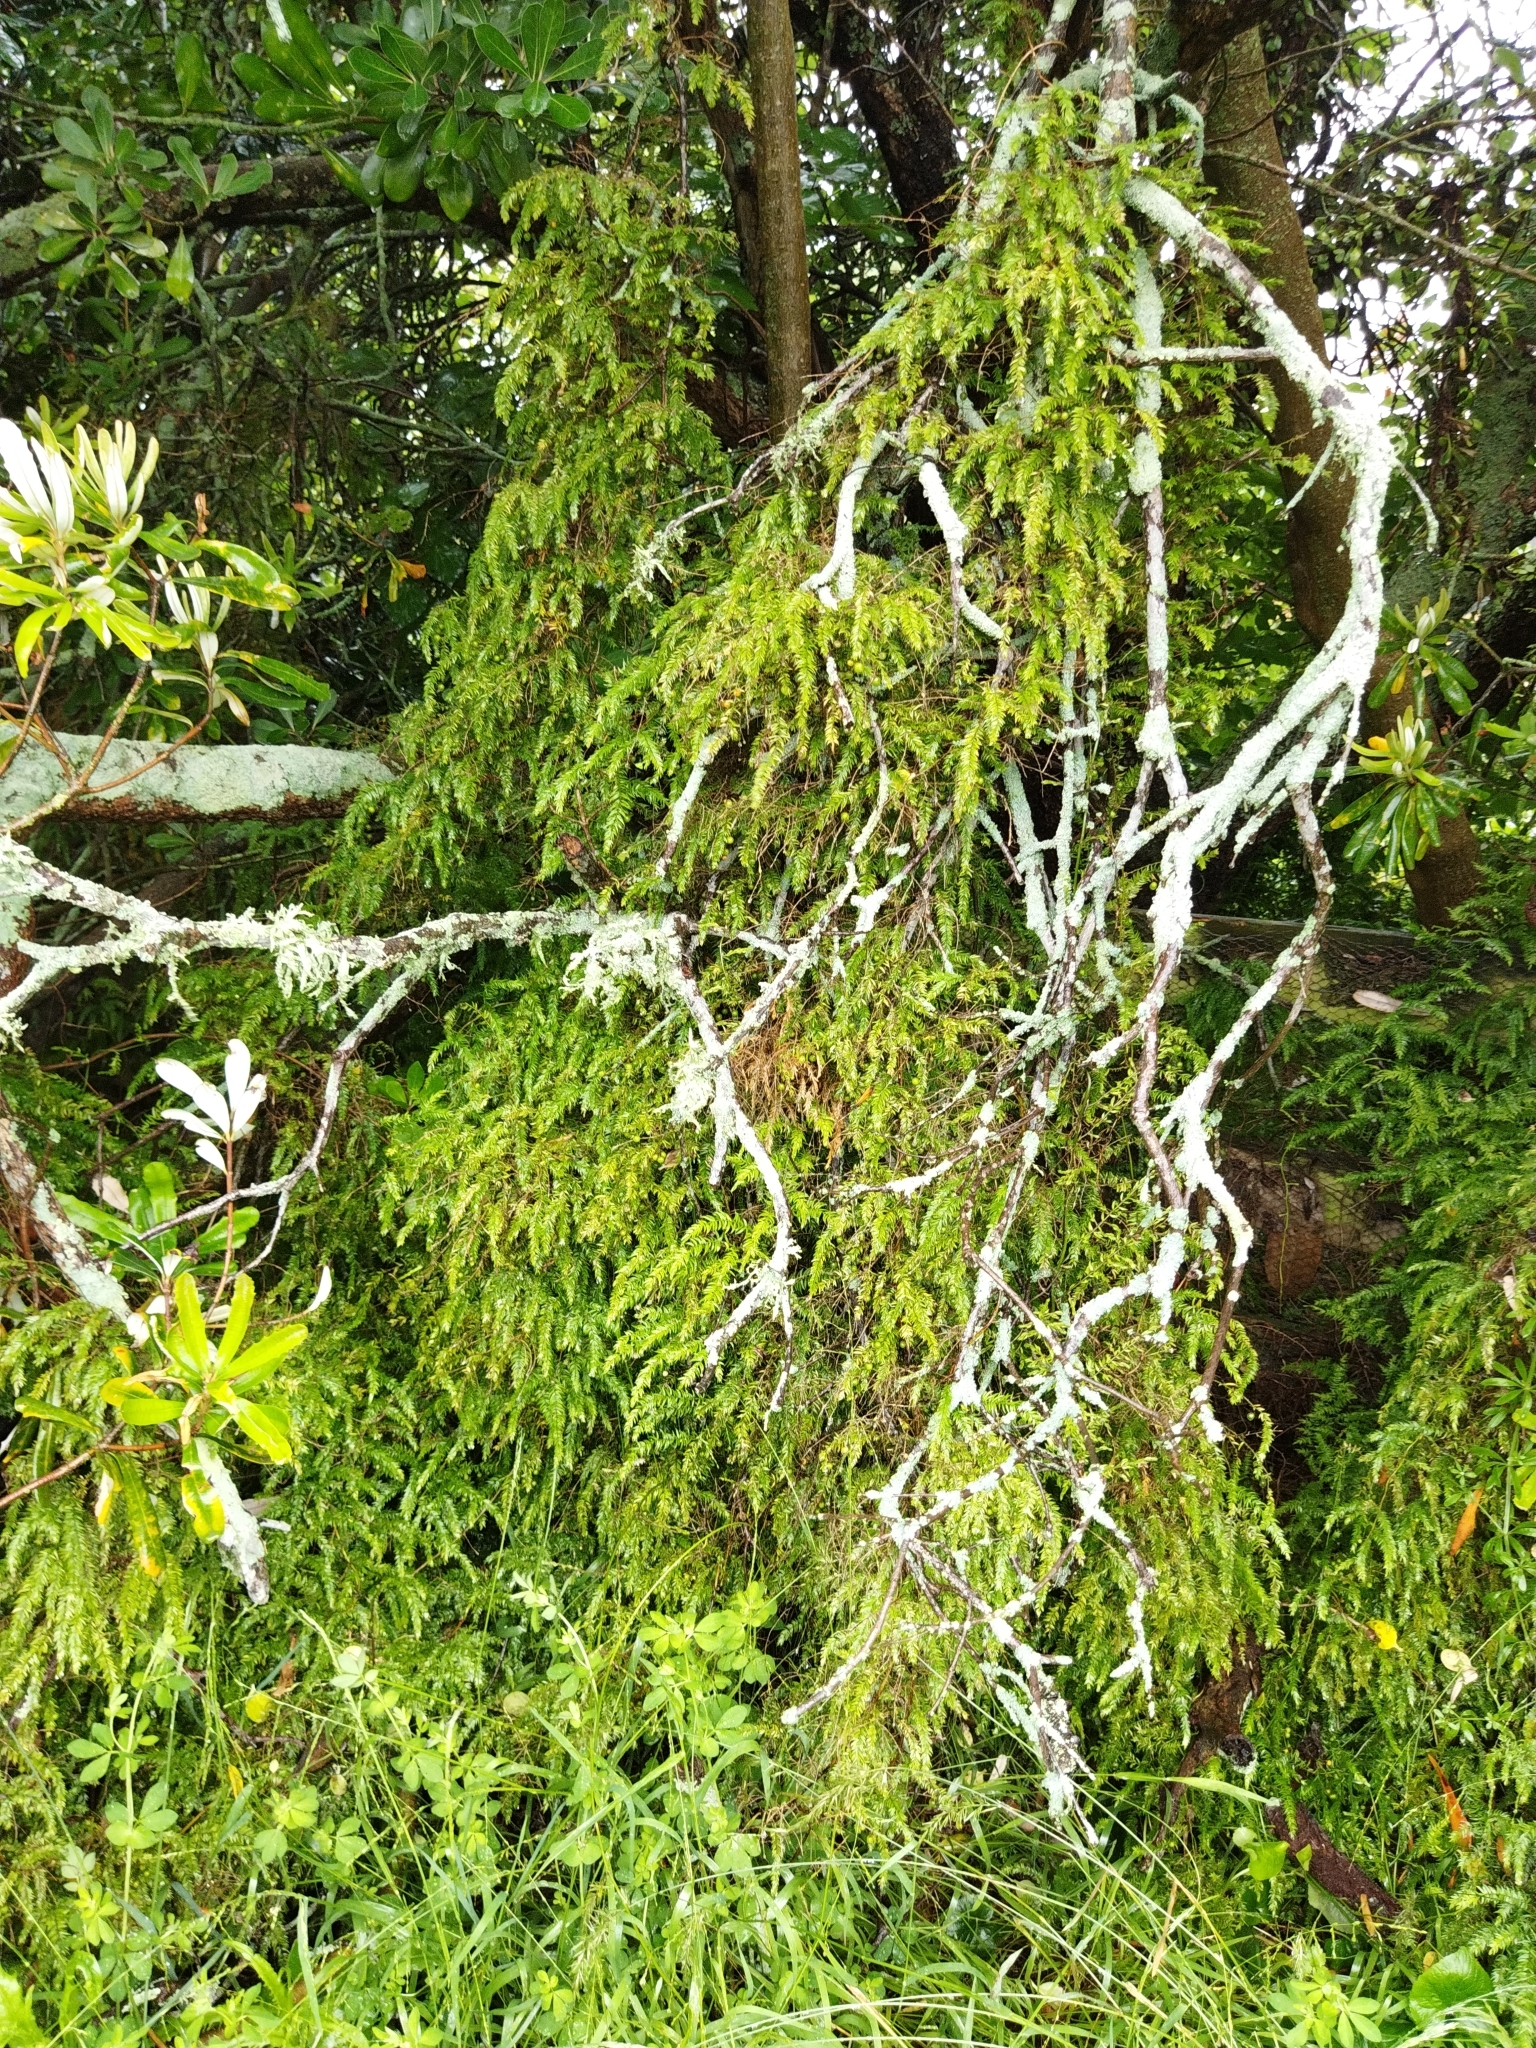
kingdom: Plantae
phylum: Tracheophyta
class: Liliopsida
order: Asparagales
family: Asparagaceae
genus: Asparagus
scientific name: Asparagus scandens
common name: Asparagus-fern
